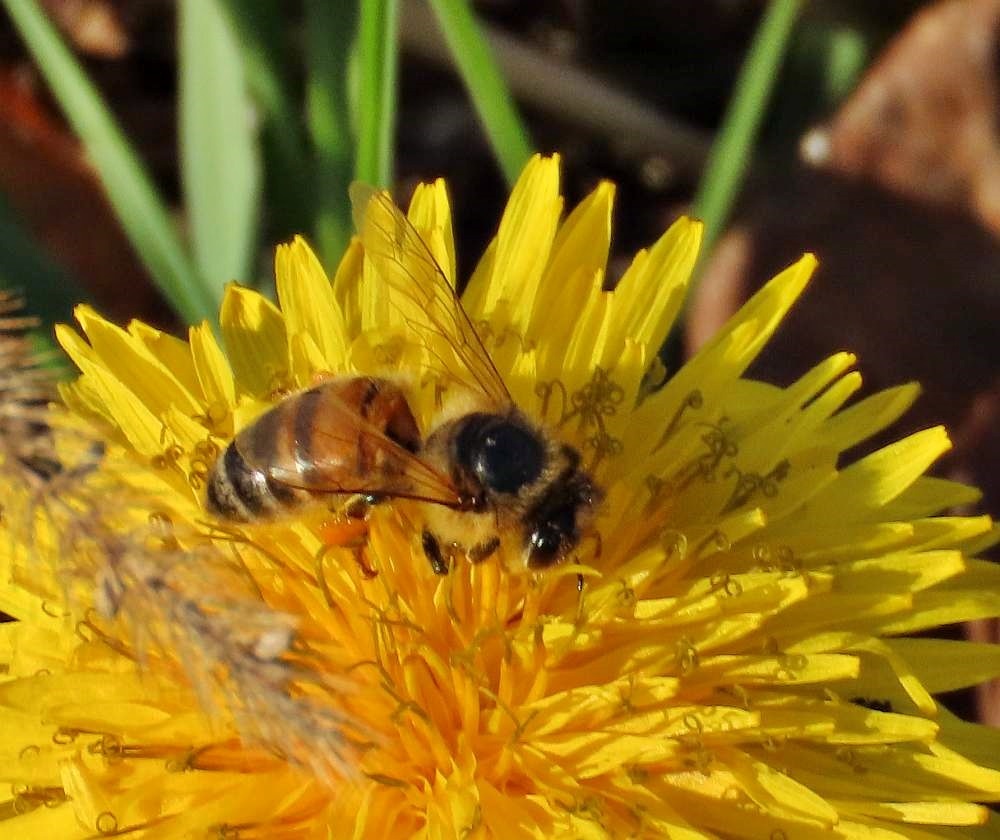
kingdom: Animalia
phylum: Arthropoda
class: Insecta
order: Hymenoptera
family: Apidae
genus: Apis
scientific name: Apis mellifera
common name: Honey bee
